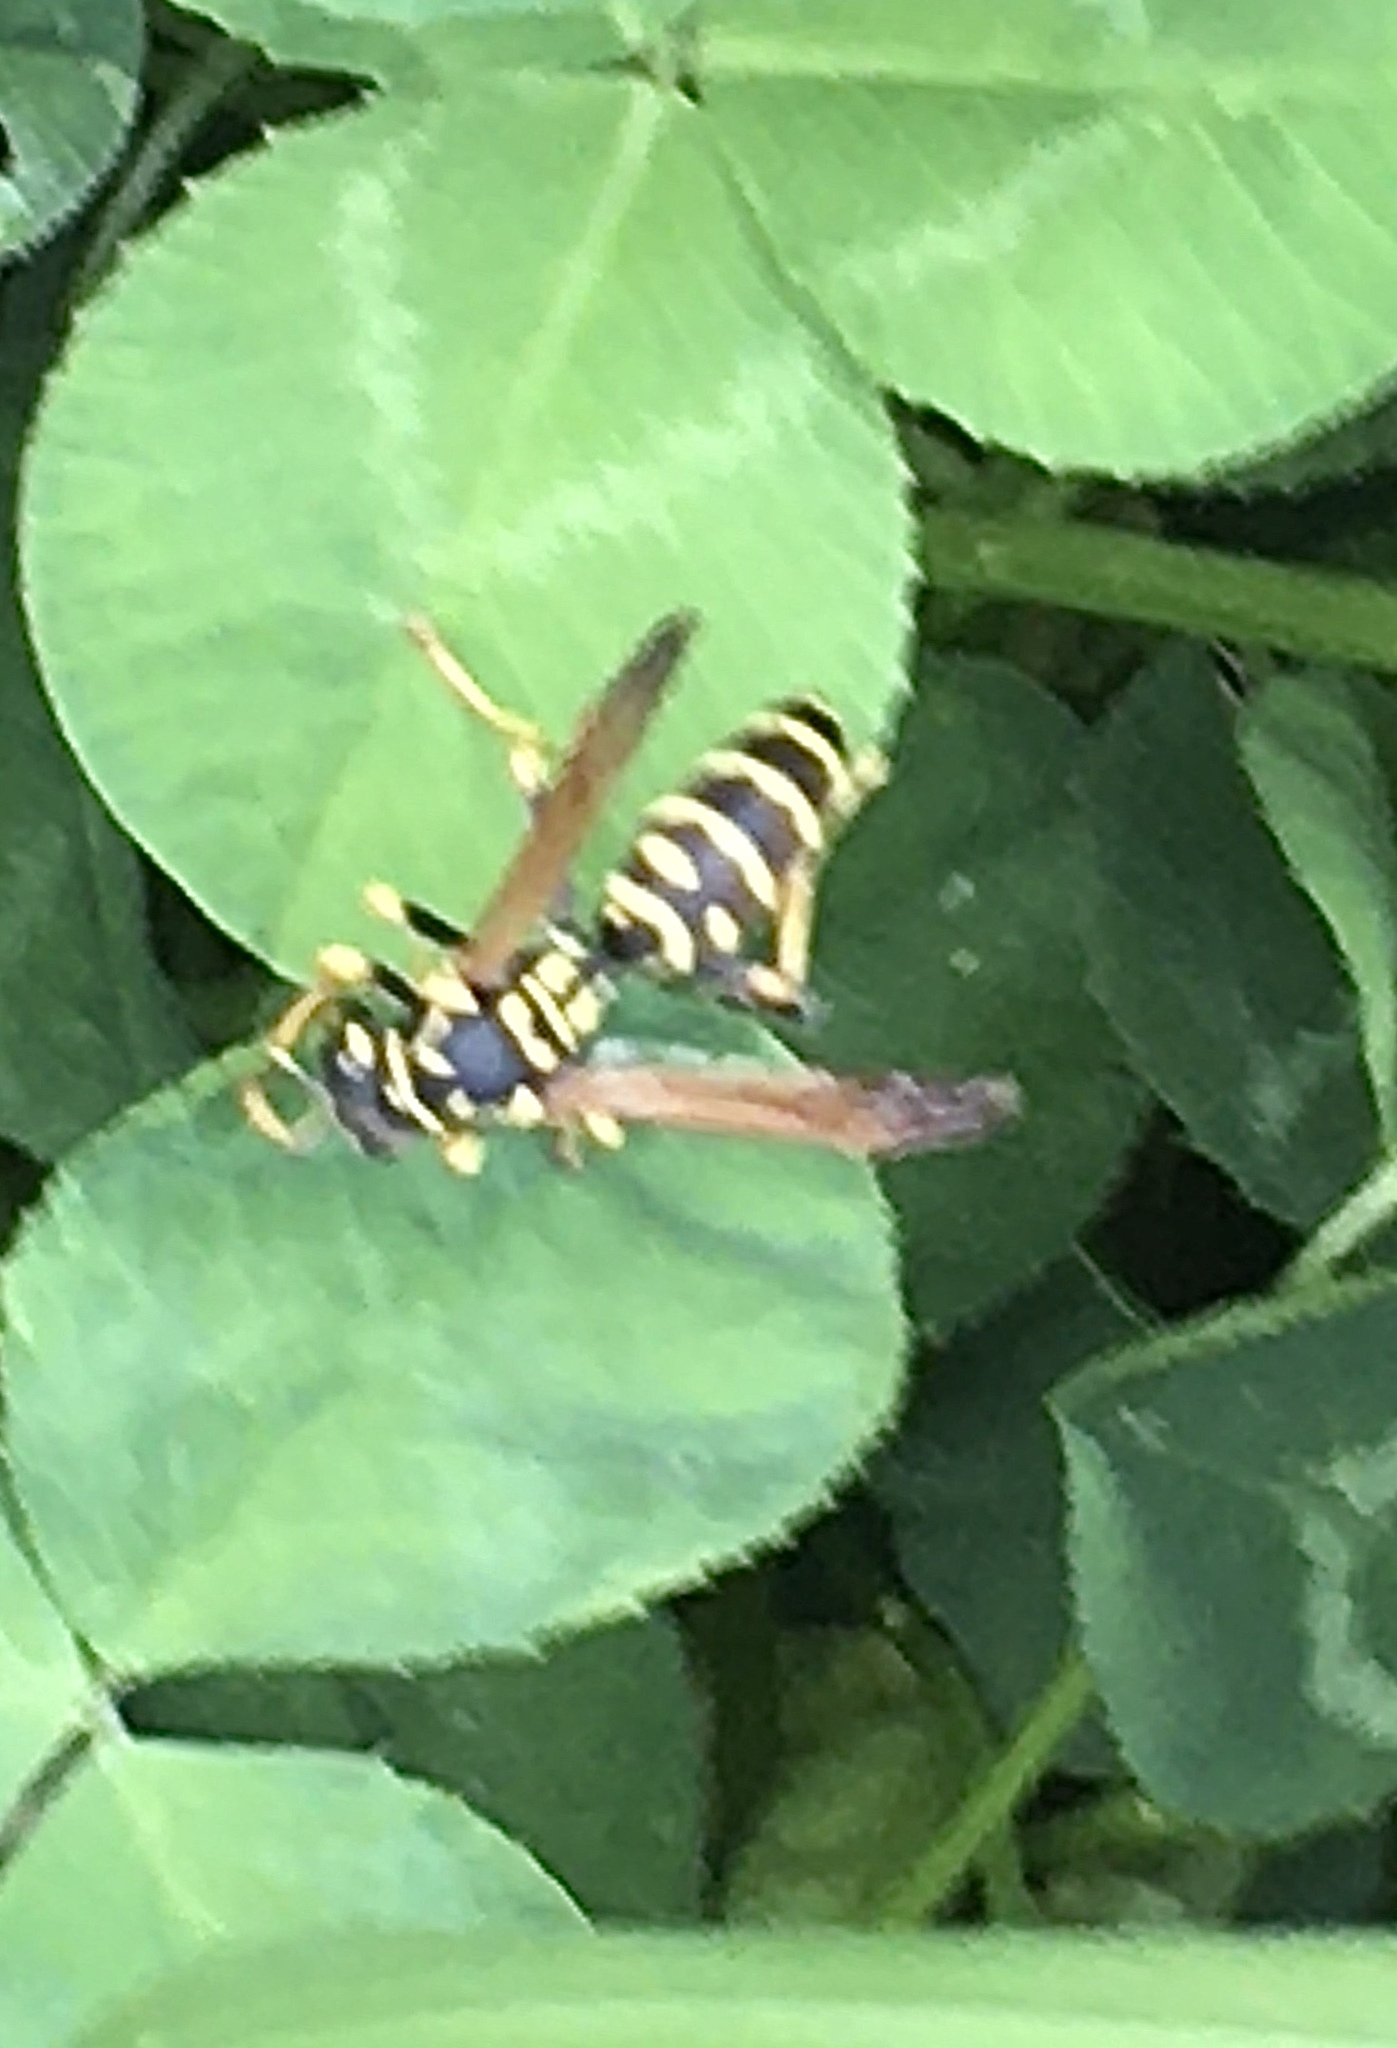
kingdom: Animalia
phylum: Arthropoda
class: Insecta
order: Hymenoptera
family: Eumenidae
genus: Polistes
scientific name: Polistes dominula
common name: Paper wasp
